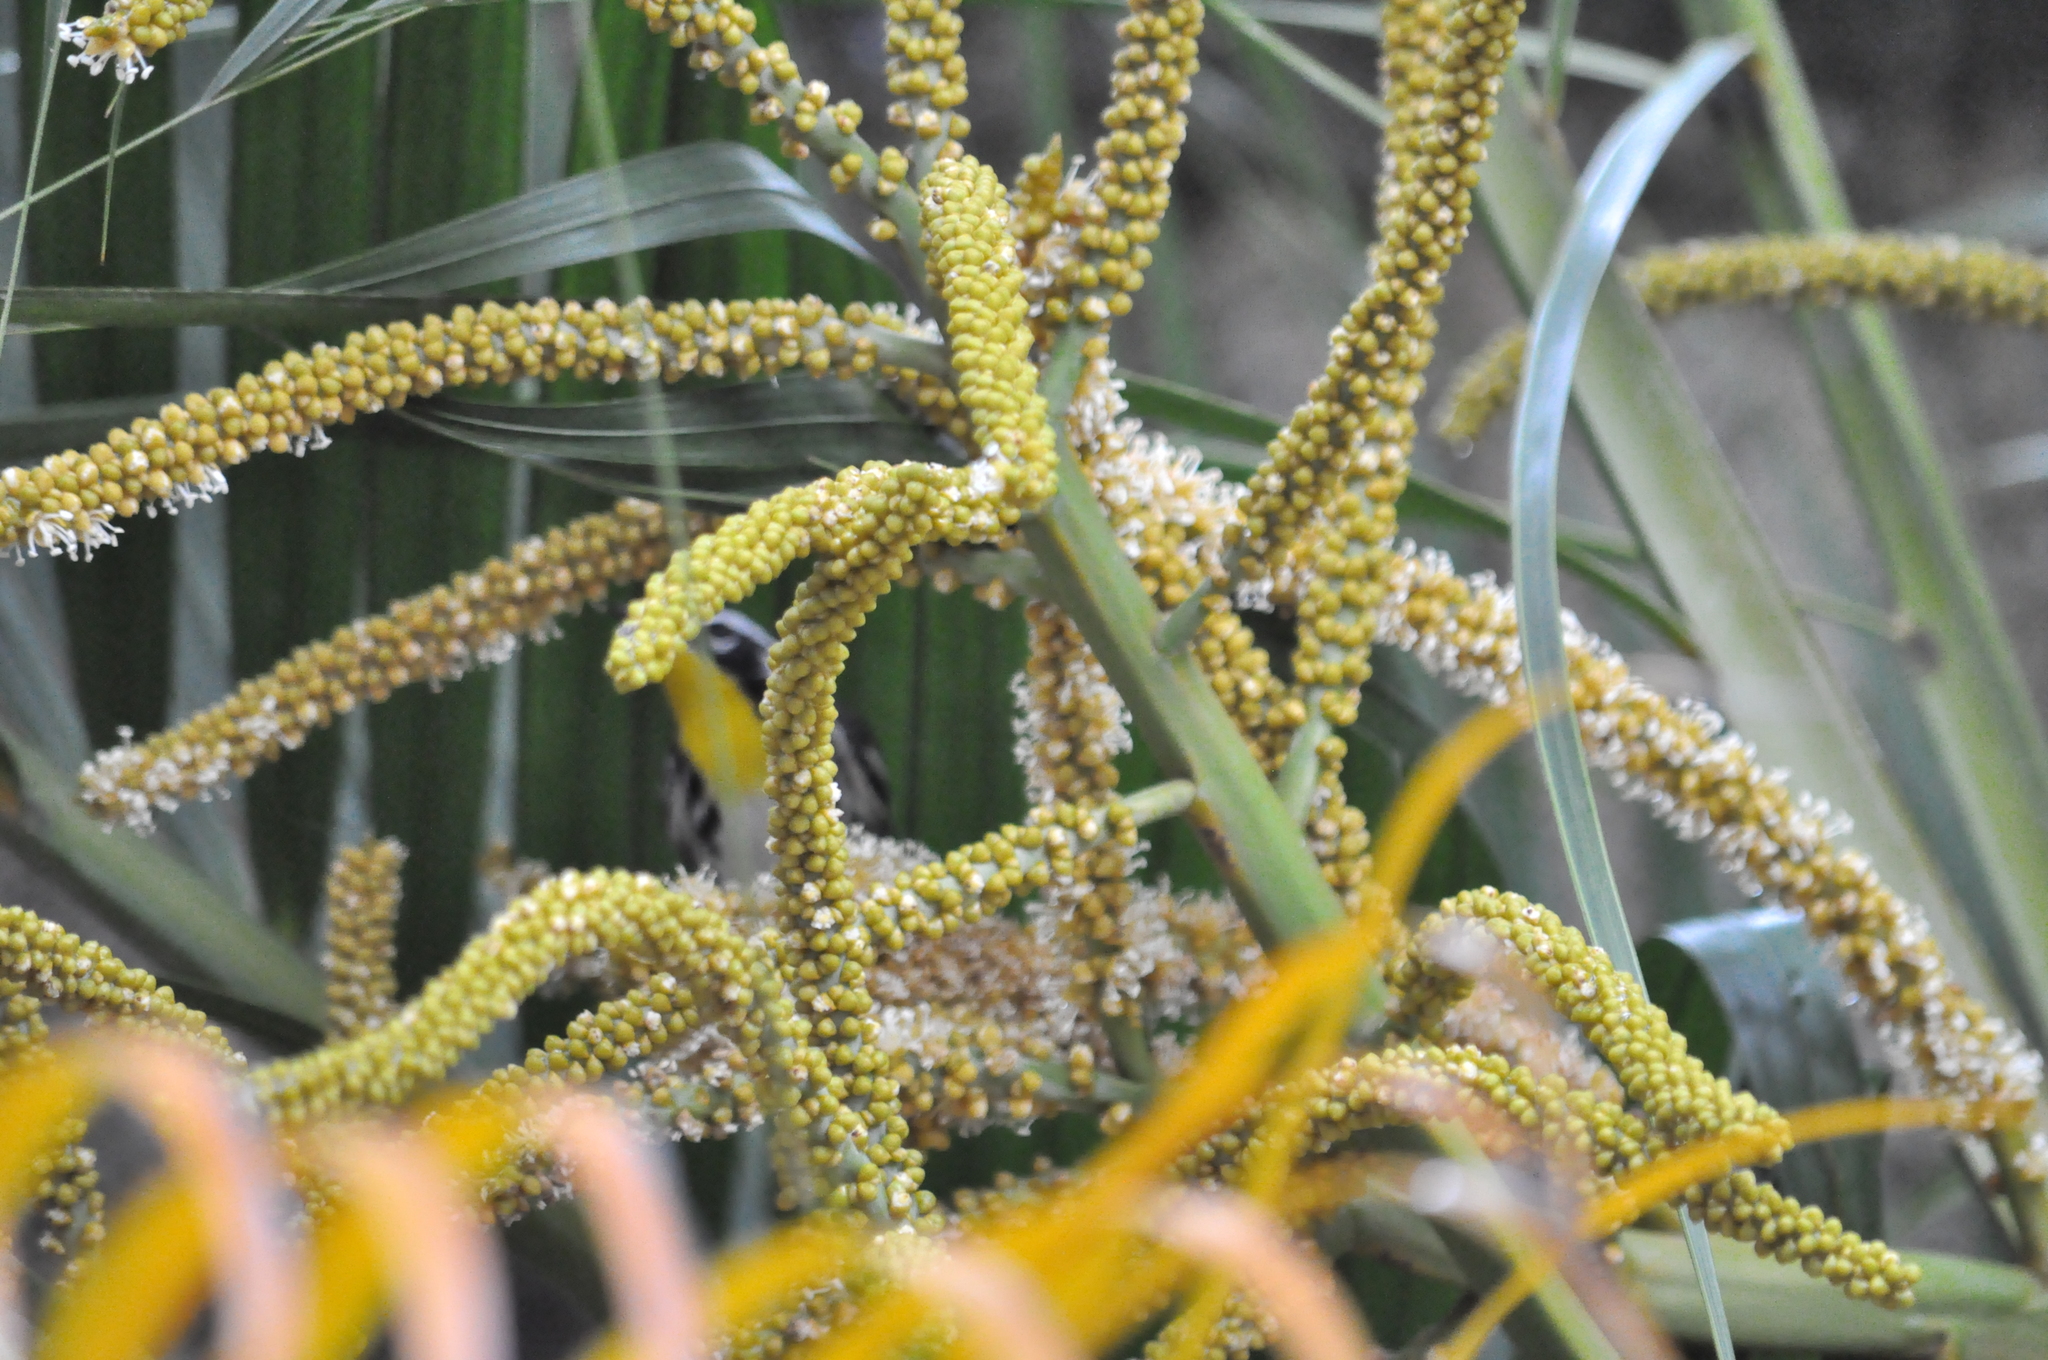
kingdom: Animalia
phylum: Chordata
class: Aves
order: Passeriformes
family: Parulidae
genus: Setophaga
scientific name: Setophaga dominica
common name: Yellow-throated warbler
